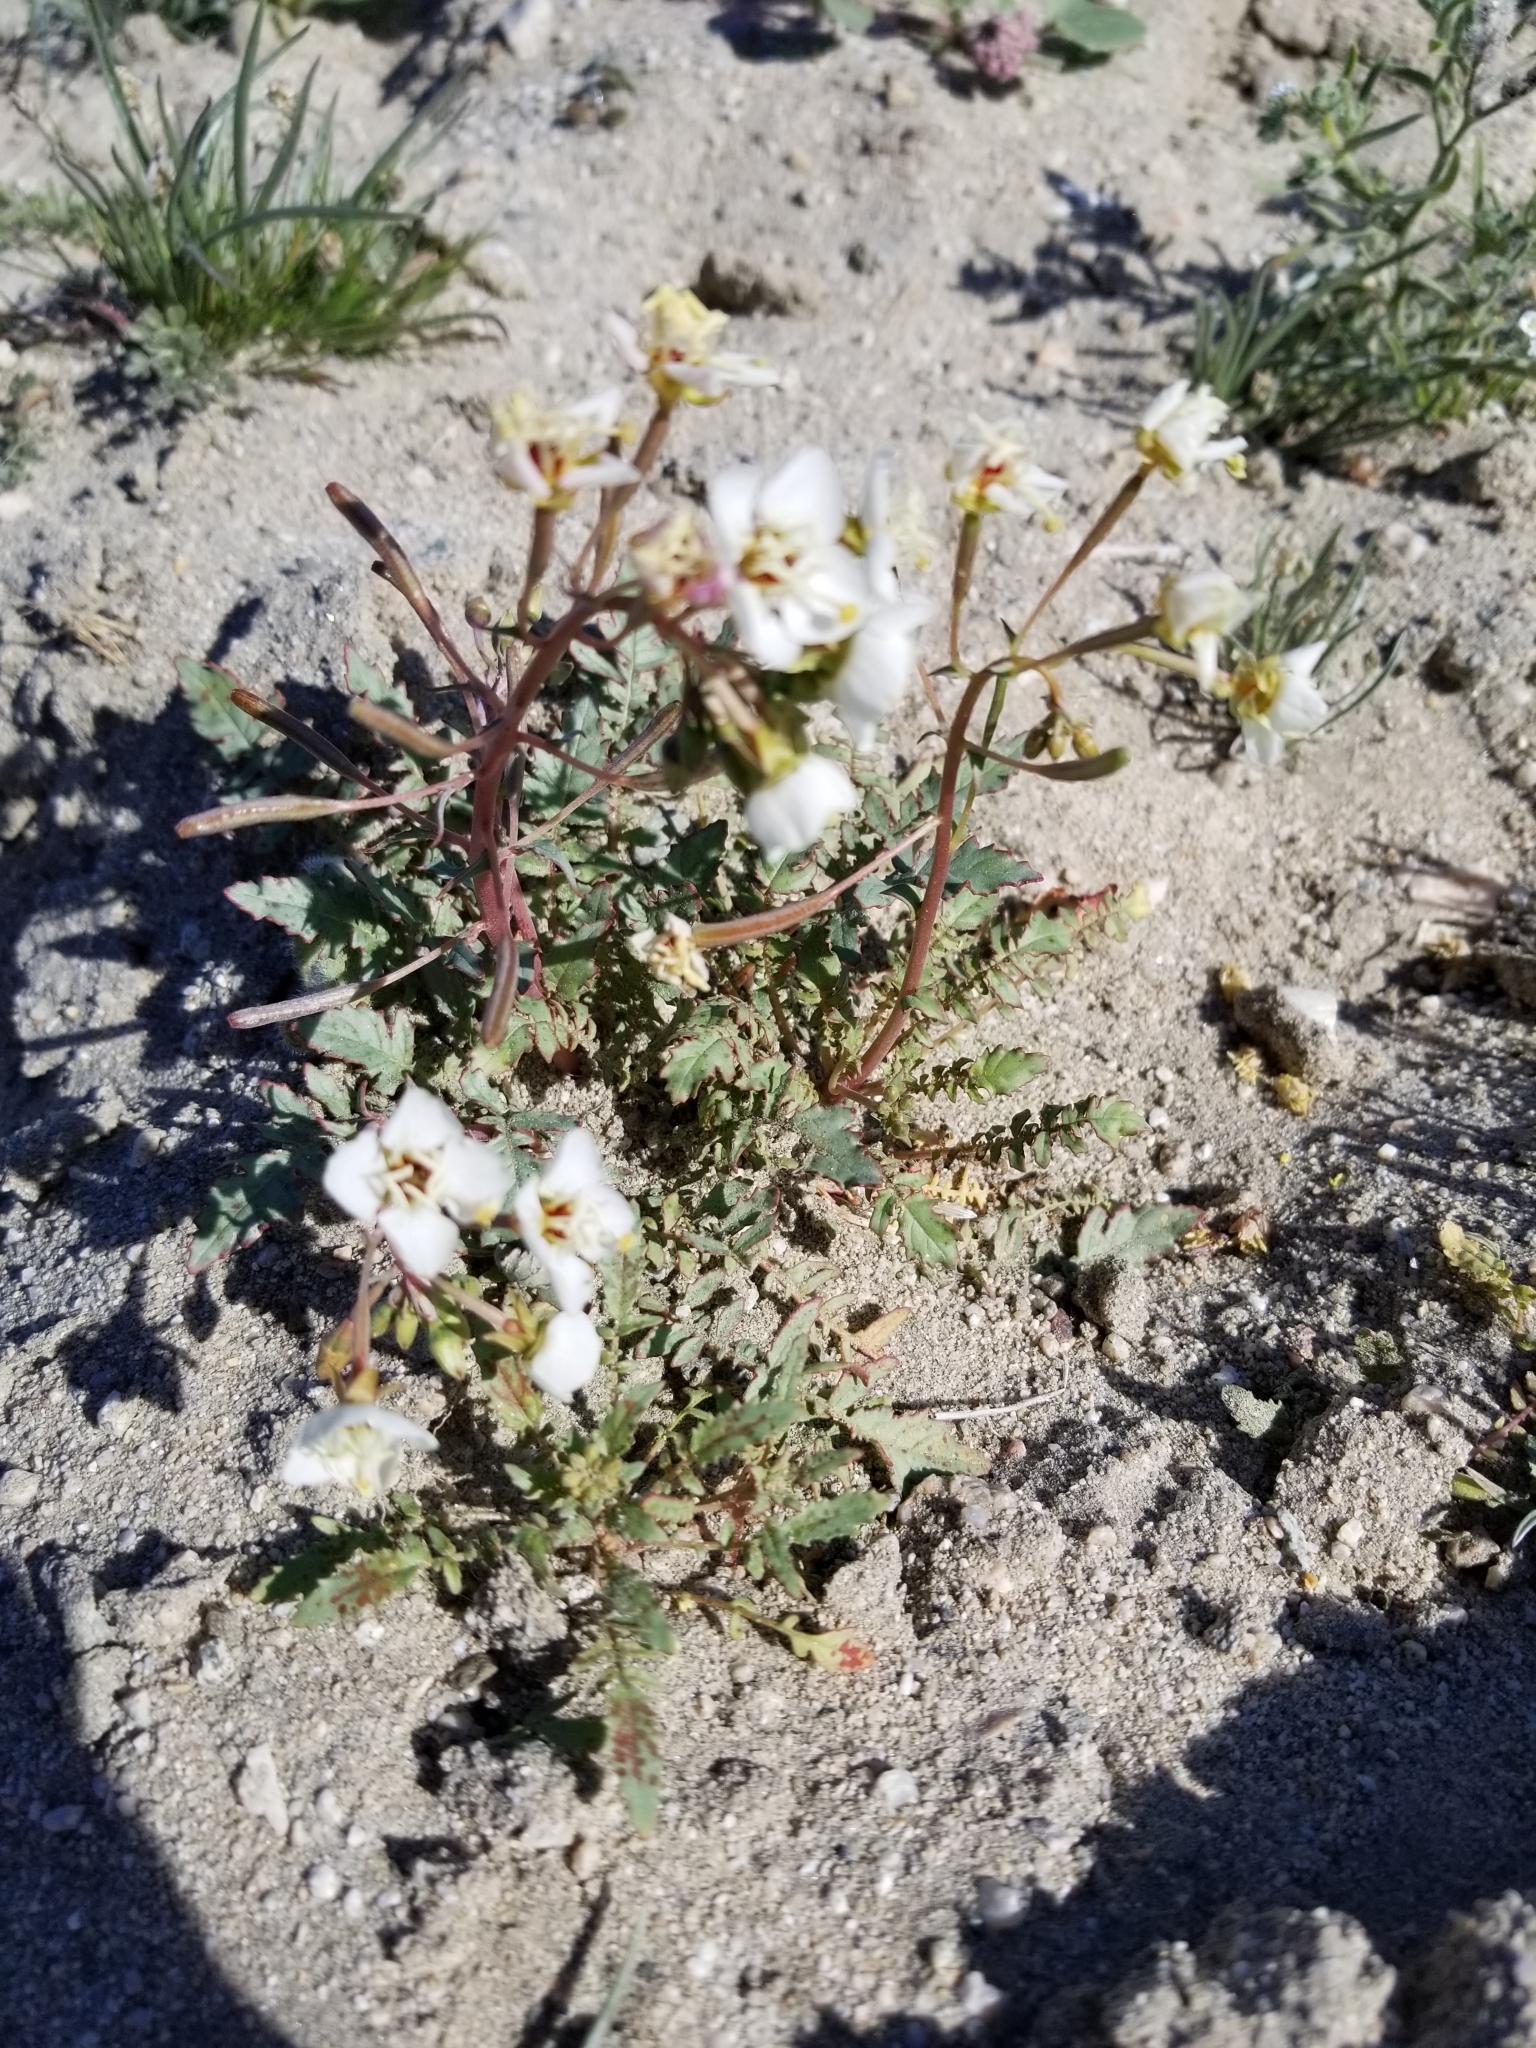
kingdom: Plantae
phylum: Tracheophyta
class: Magnoliopsida
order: Myrtales
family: Onagraceae
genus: Chylismia
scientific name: Chylismia claviformis
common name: Browneyes
